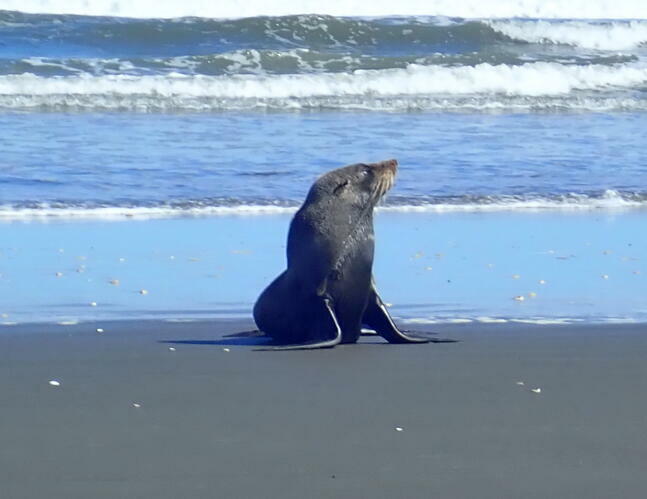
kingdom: Animalia
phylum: Chordata
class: Mammalia
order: Carnivora
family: Otariidae
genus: Arctocephalus
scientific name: Arctocephalus forsteri
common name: New zealand fur seal
